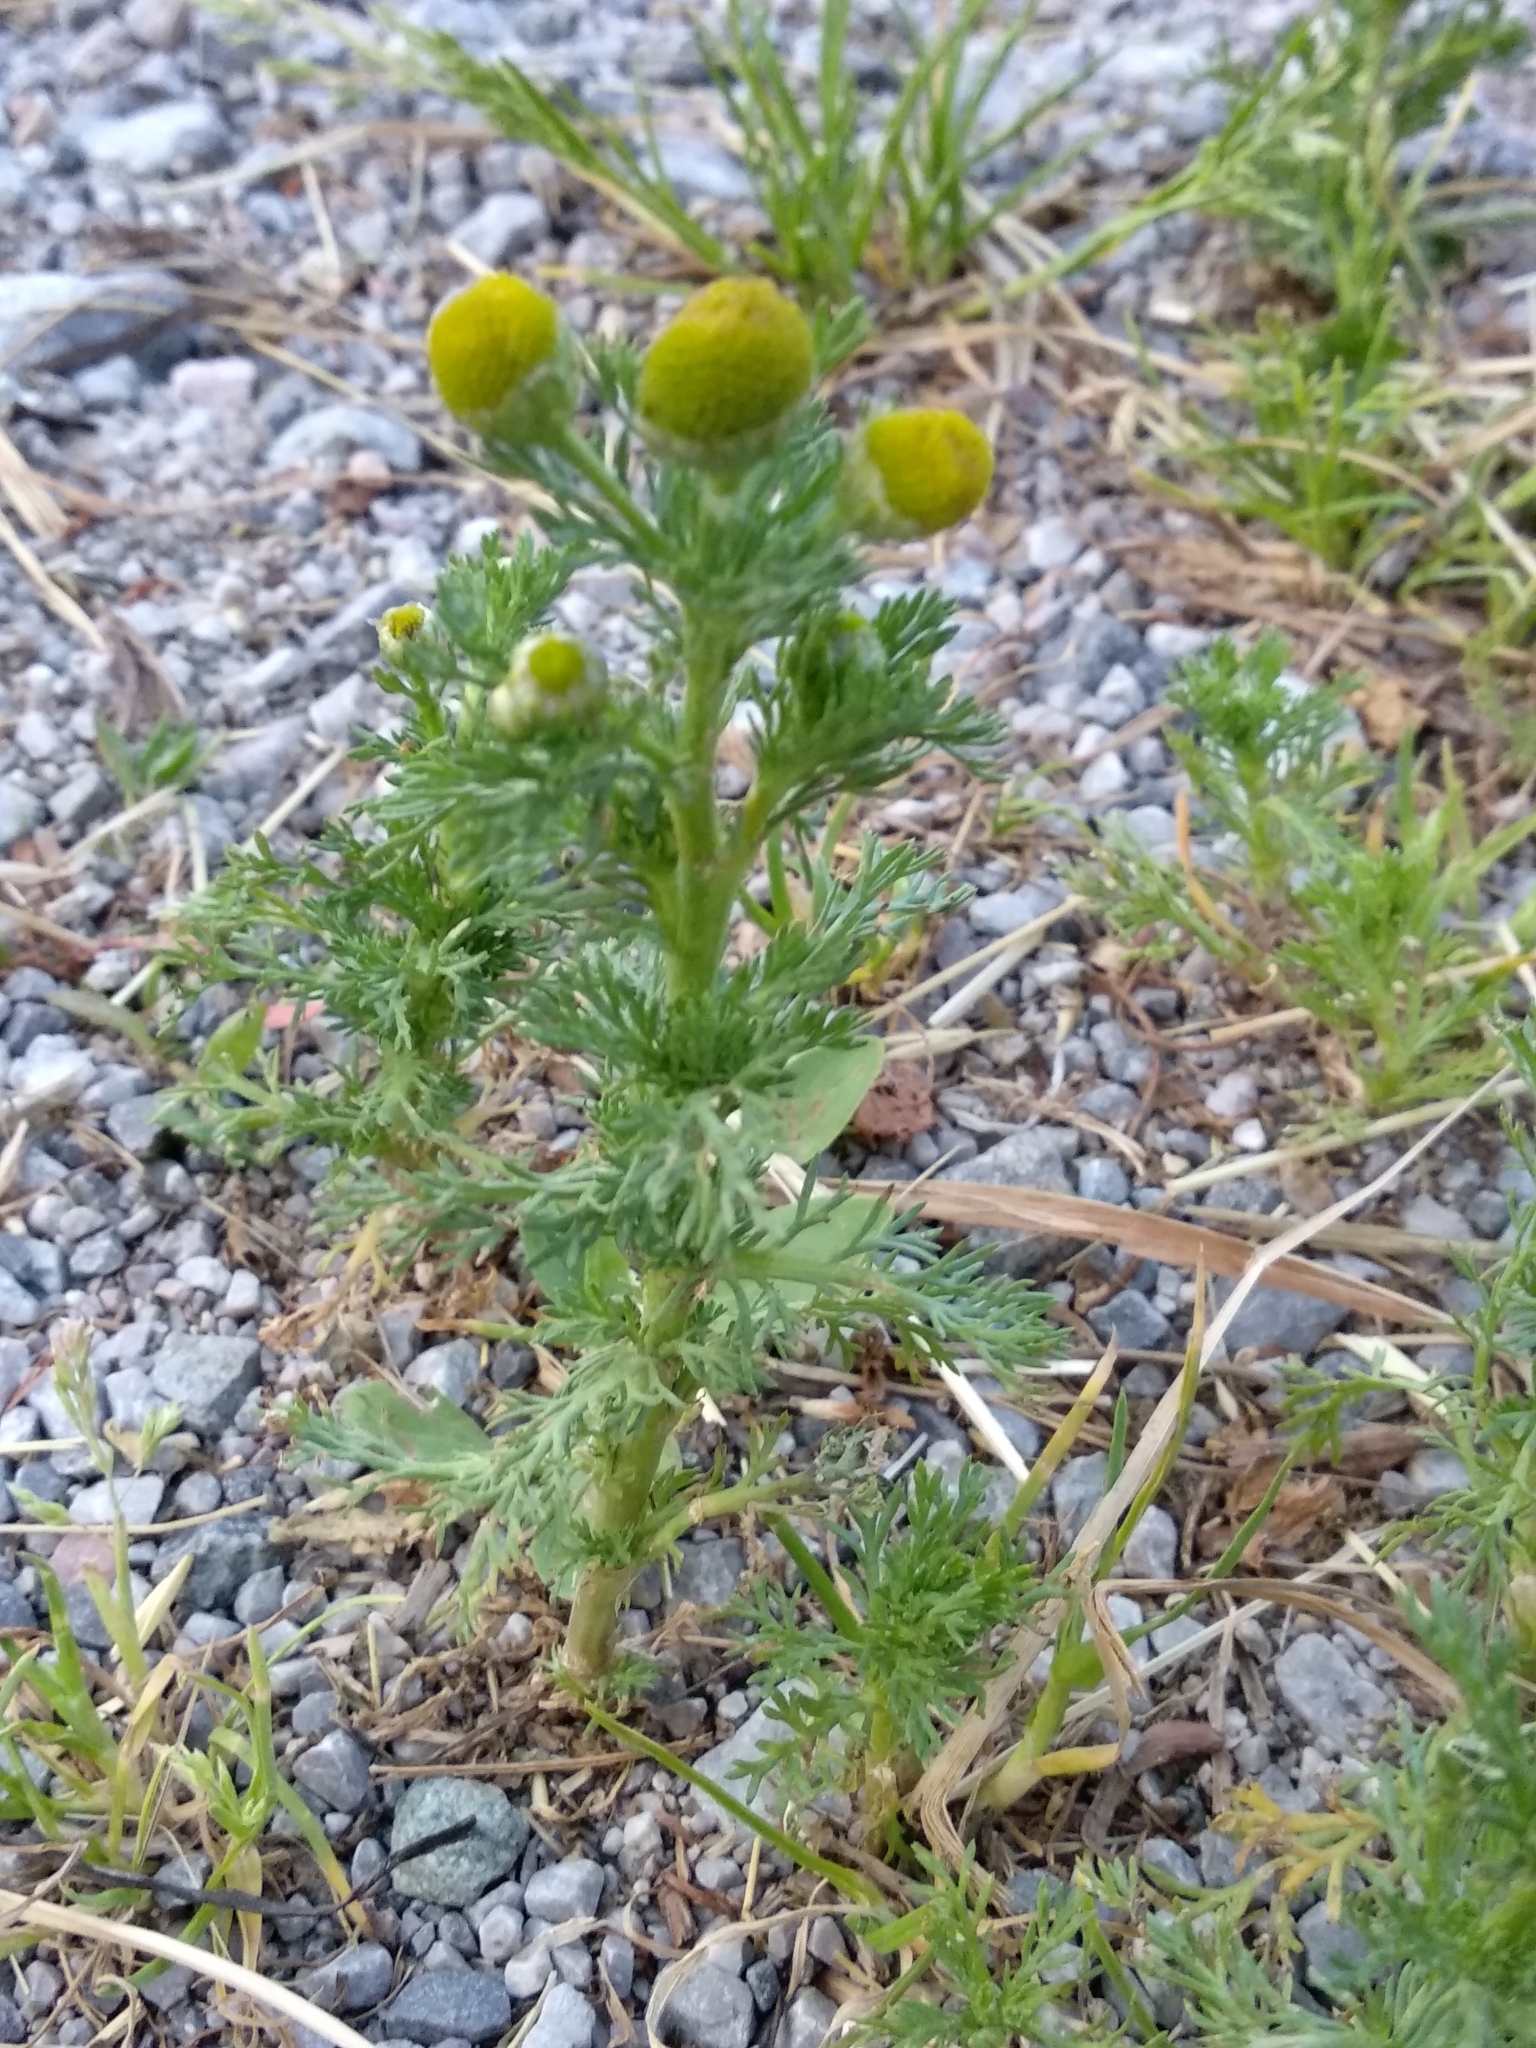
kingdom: Plantae
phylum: Tracheophyta
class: Magnoliopsida
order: Asterales
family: Asteraceae
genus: Matricaria
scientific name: Matricaria discoidea
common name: Disc mayweed
